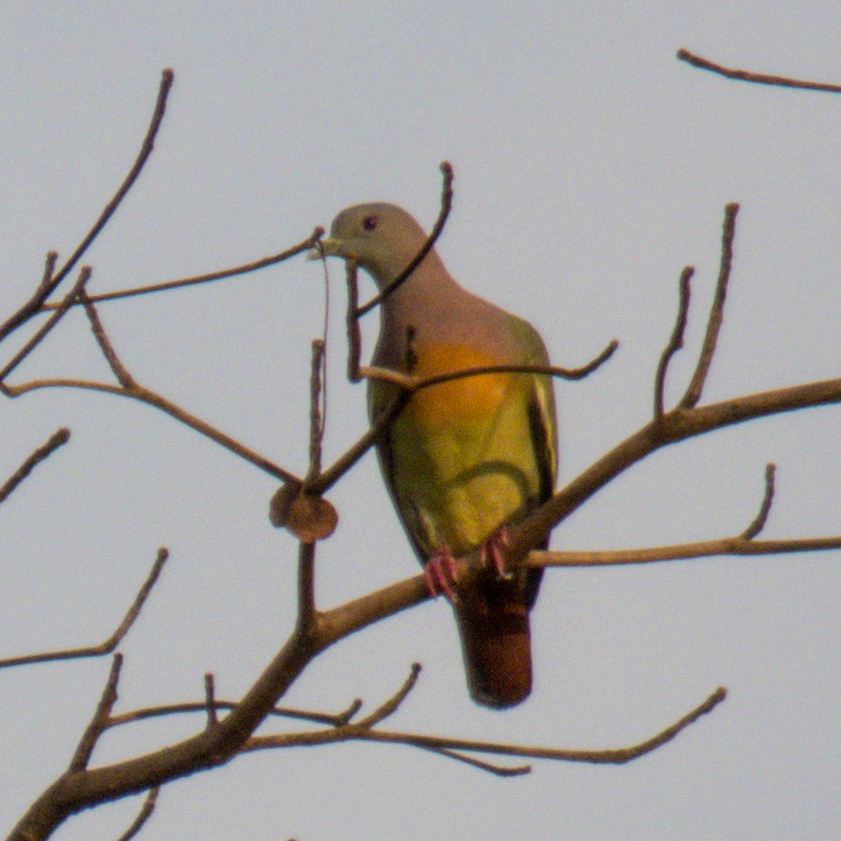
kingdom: Animalia
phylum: Chordata
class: Aves
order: Columbiformes
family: Columbidae
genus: Treron
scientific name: Treron vernans
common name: Pink-necked green pigeon
